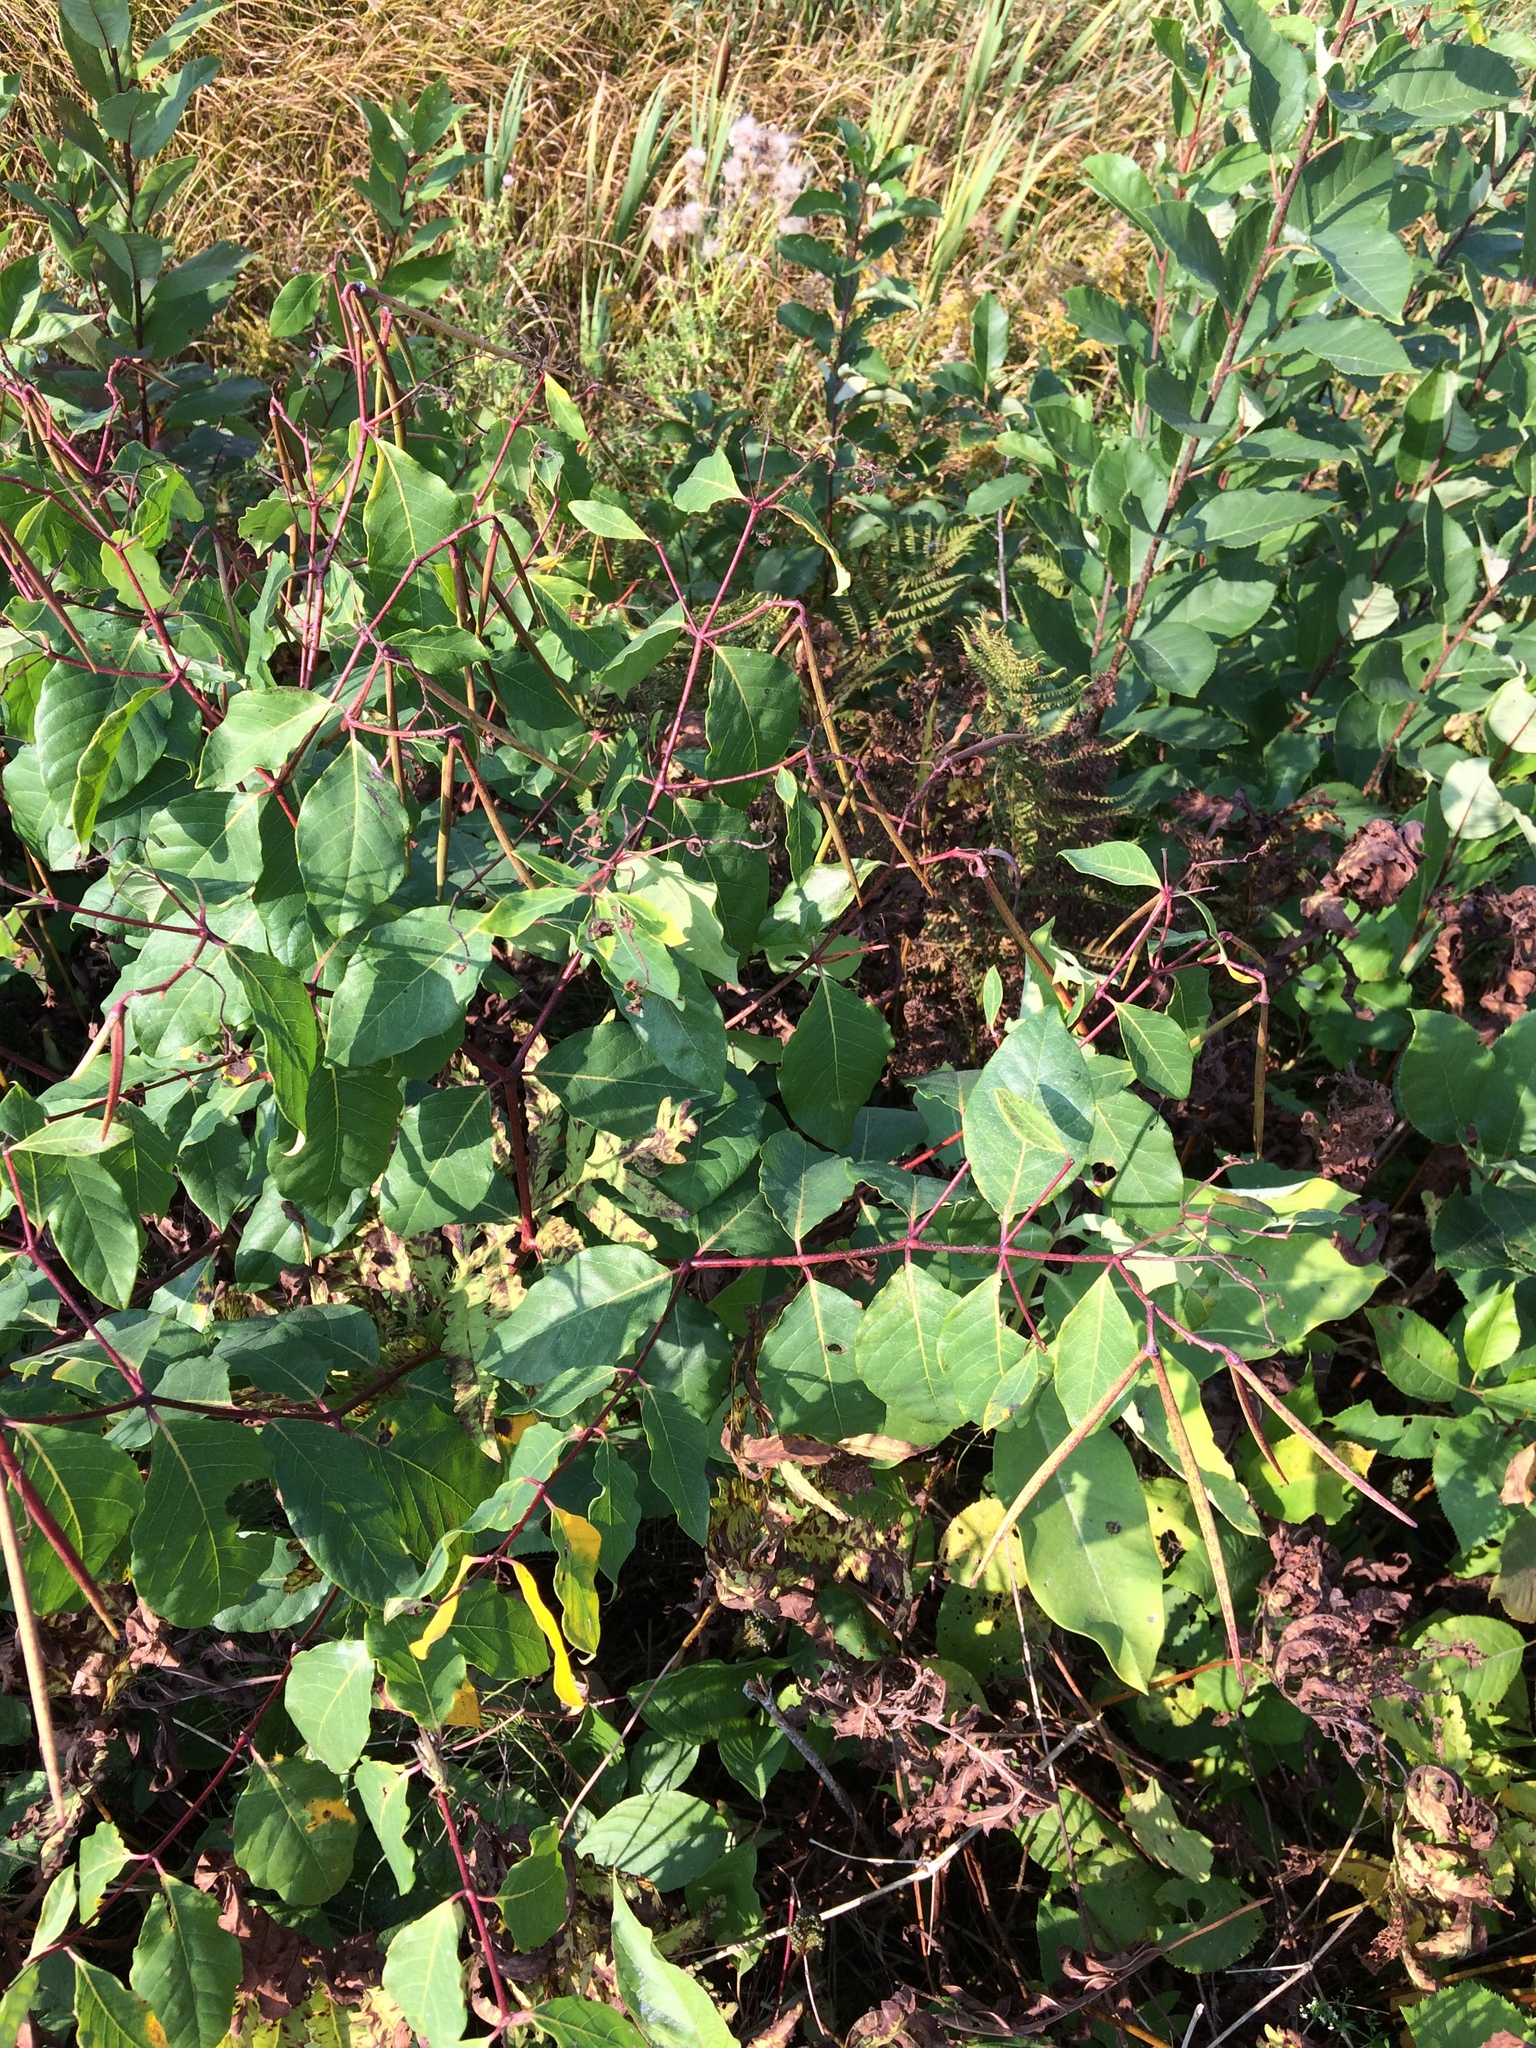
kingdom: Plantae
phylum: Tracheophyta
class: Magnoliopsida
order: Gentianales
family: Apocynaceae
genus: Apocynum
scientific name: Apocynum androsaemifolium
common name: Spreading dogbane
